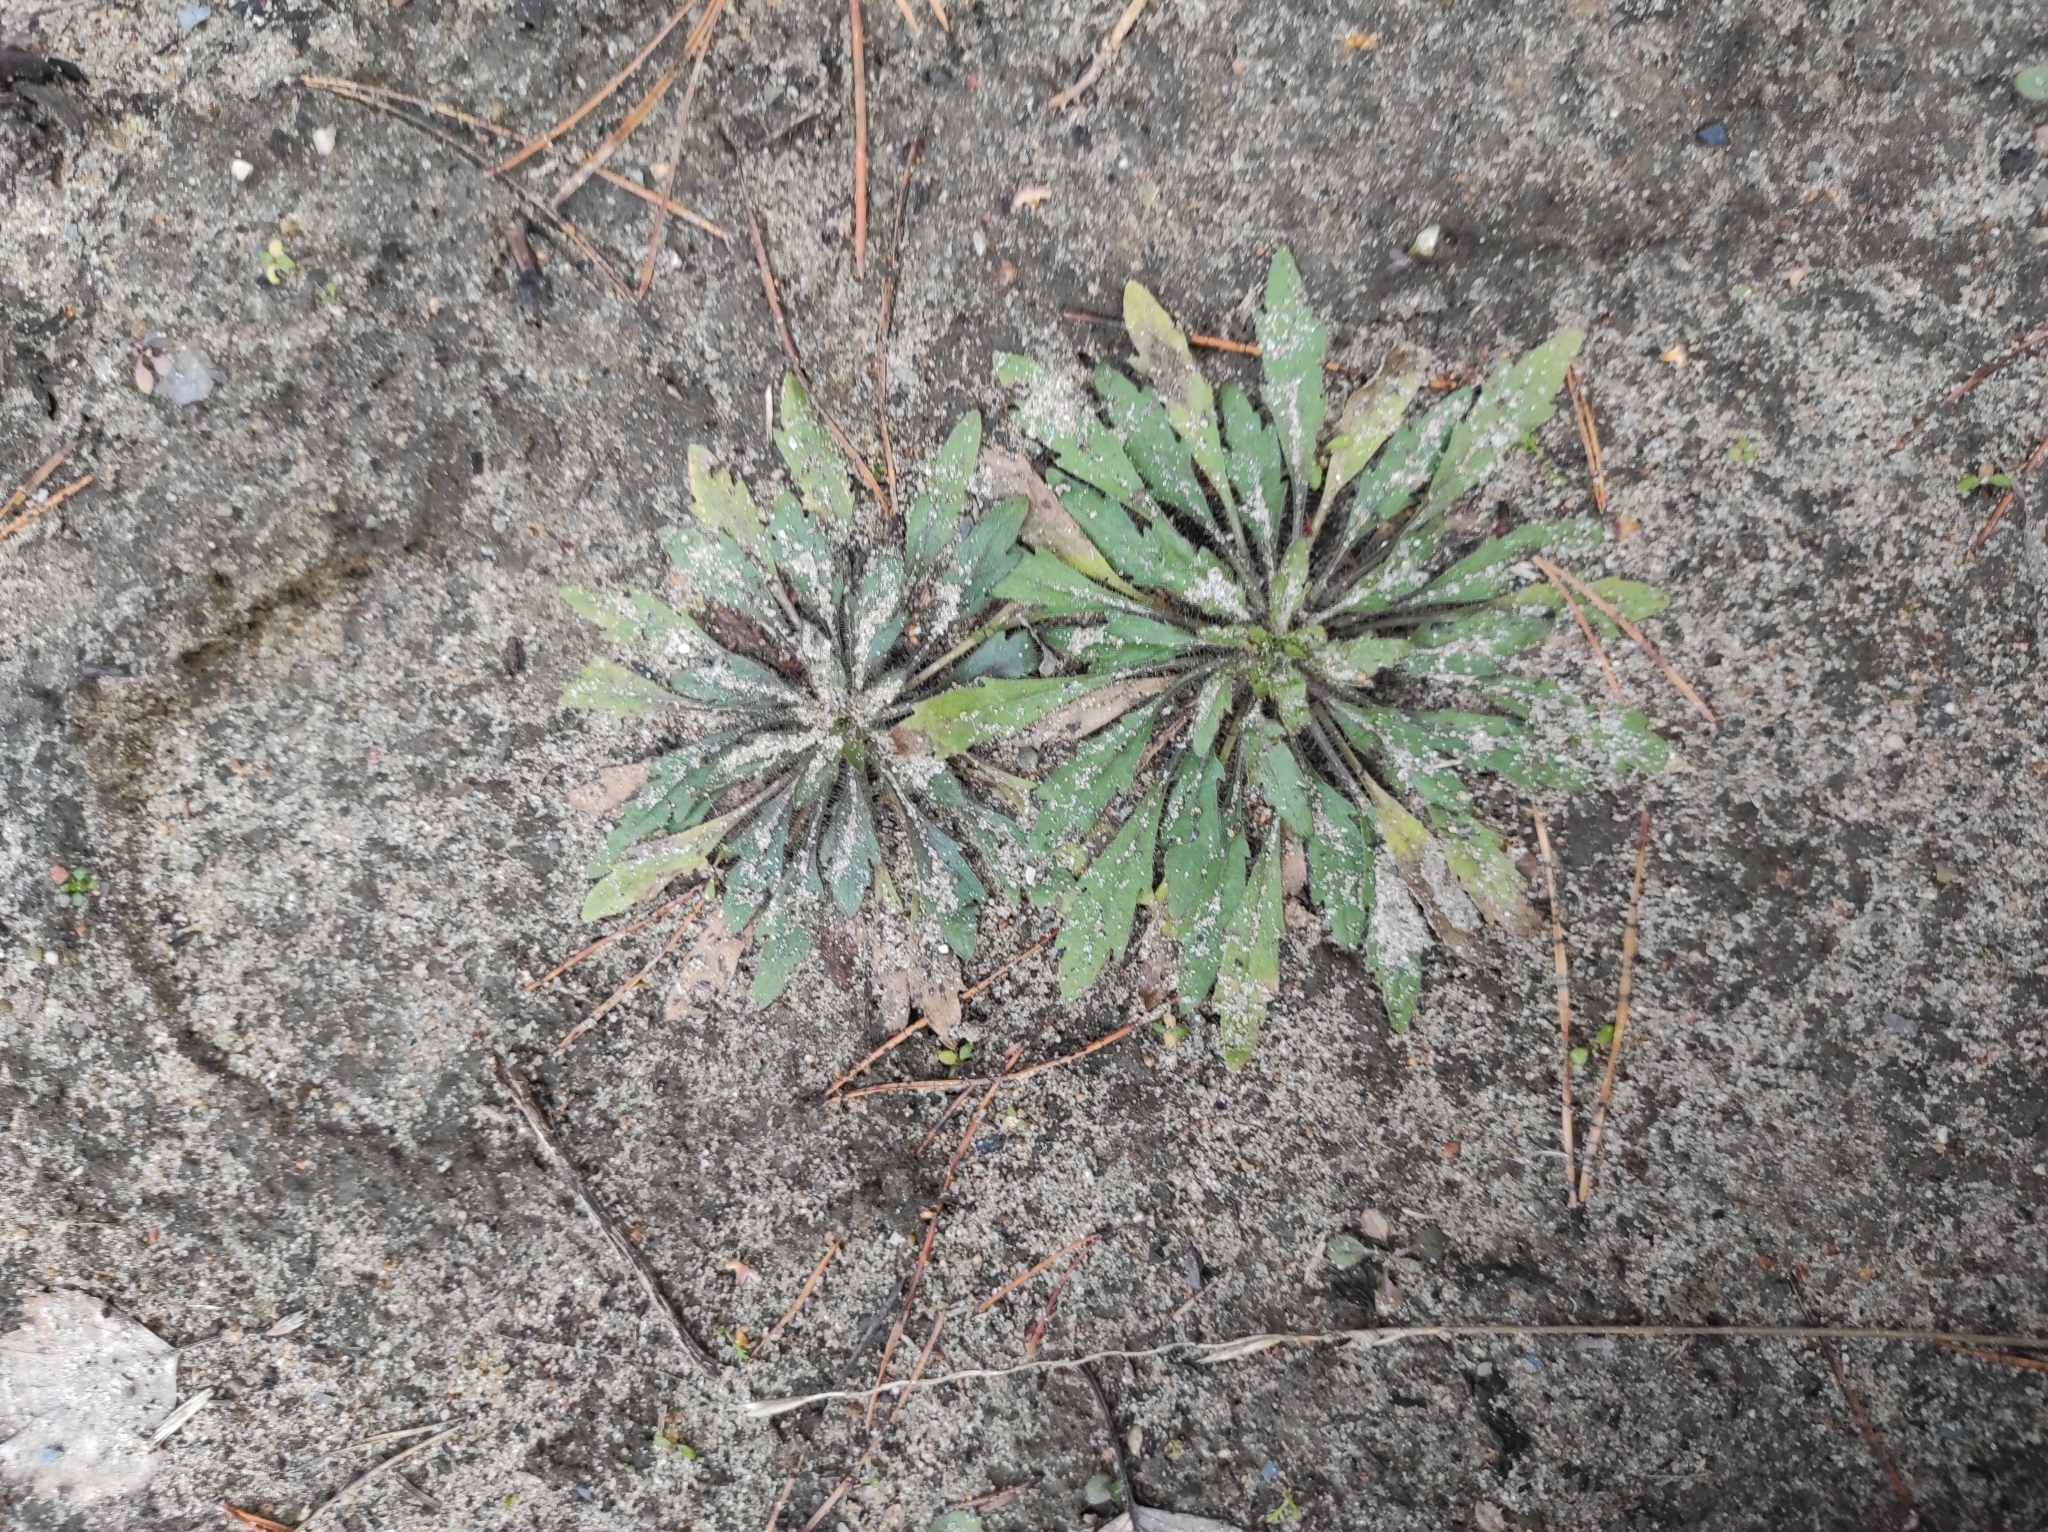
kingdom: Plantae
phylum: Tracheophyta
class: Magnoliopsida
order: Asterales
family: Asteraceae
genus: Erigeron
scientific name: Erigeron canadensis
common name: Canadian fleabane
